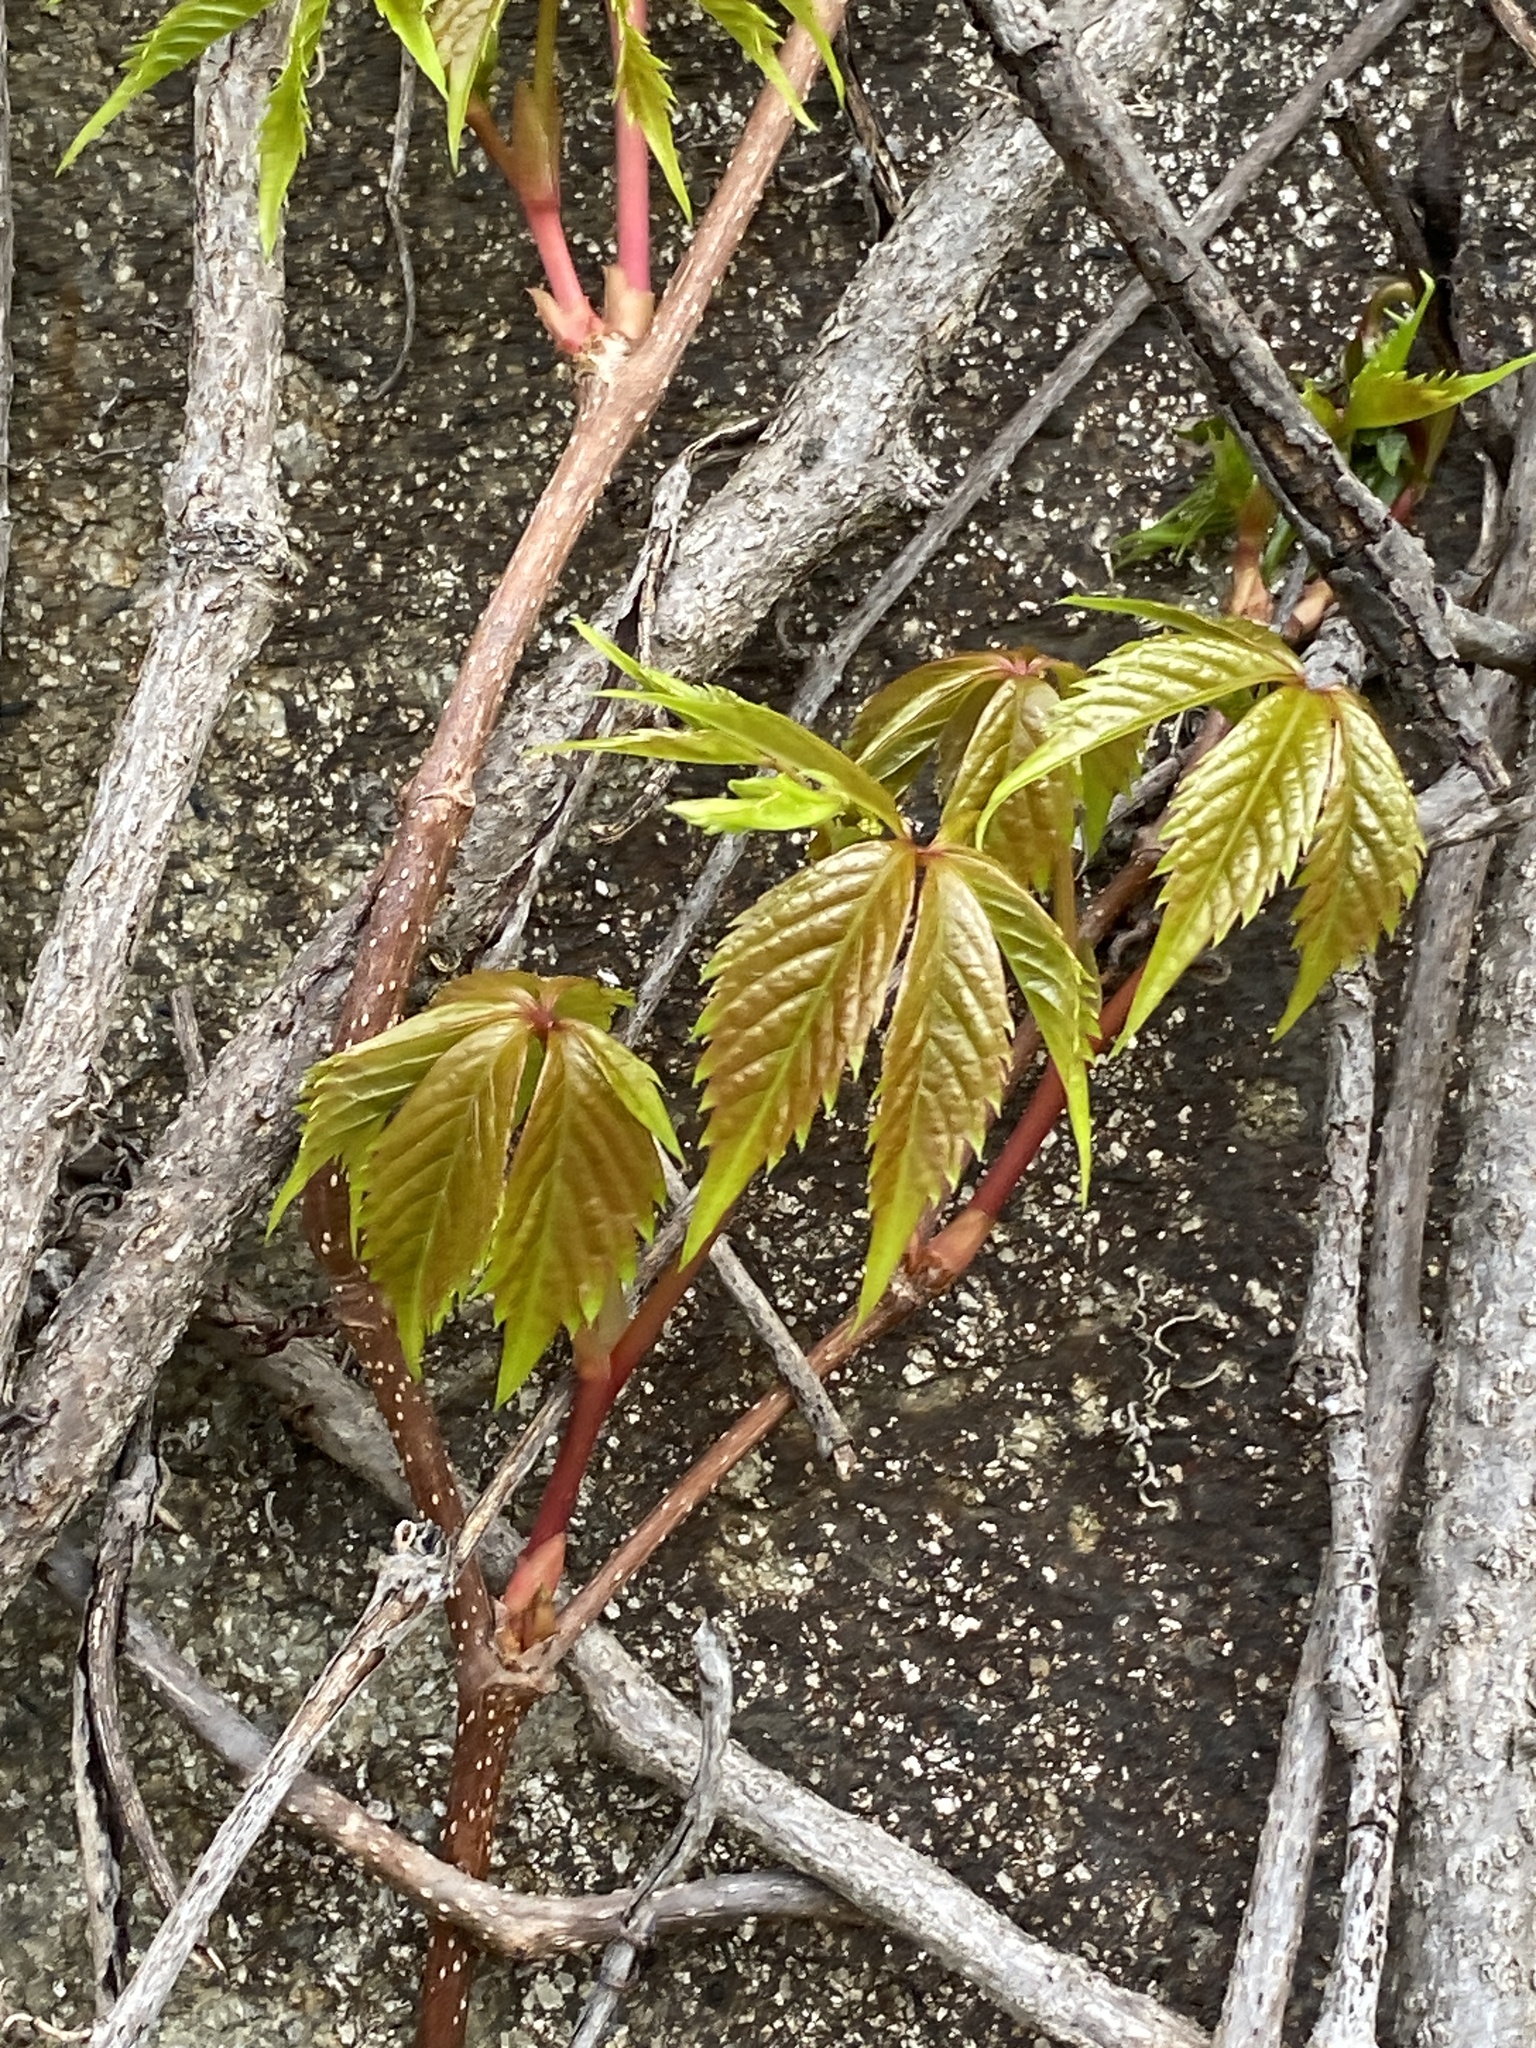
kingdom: Plantae
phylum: Tracheophyta
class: Magnoliopsida
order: Vitales
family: Vitaceae
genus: Parthenocissus
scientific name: Parthenocissus tricuspidata
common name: Boston ivy
